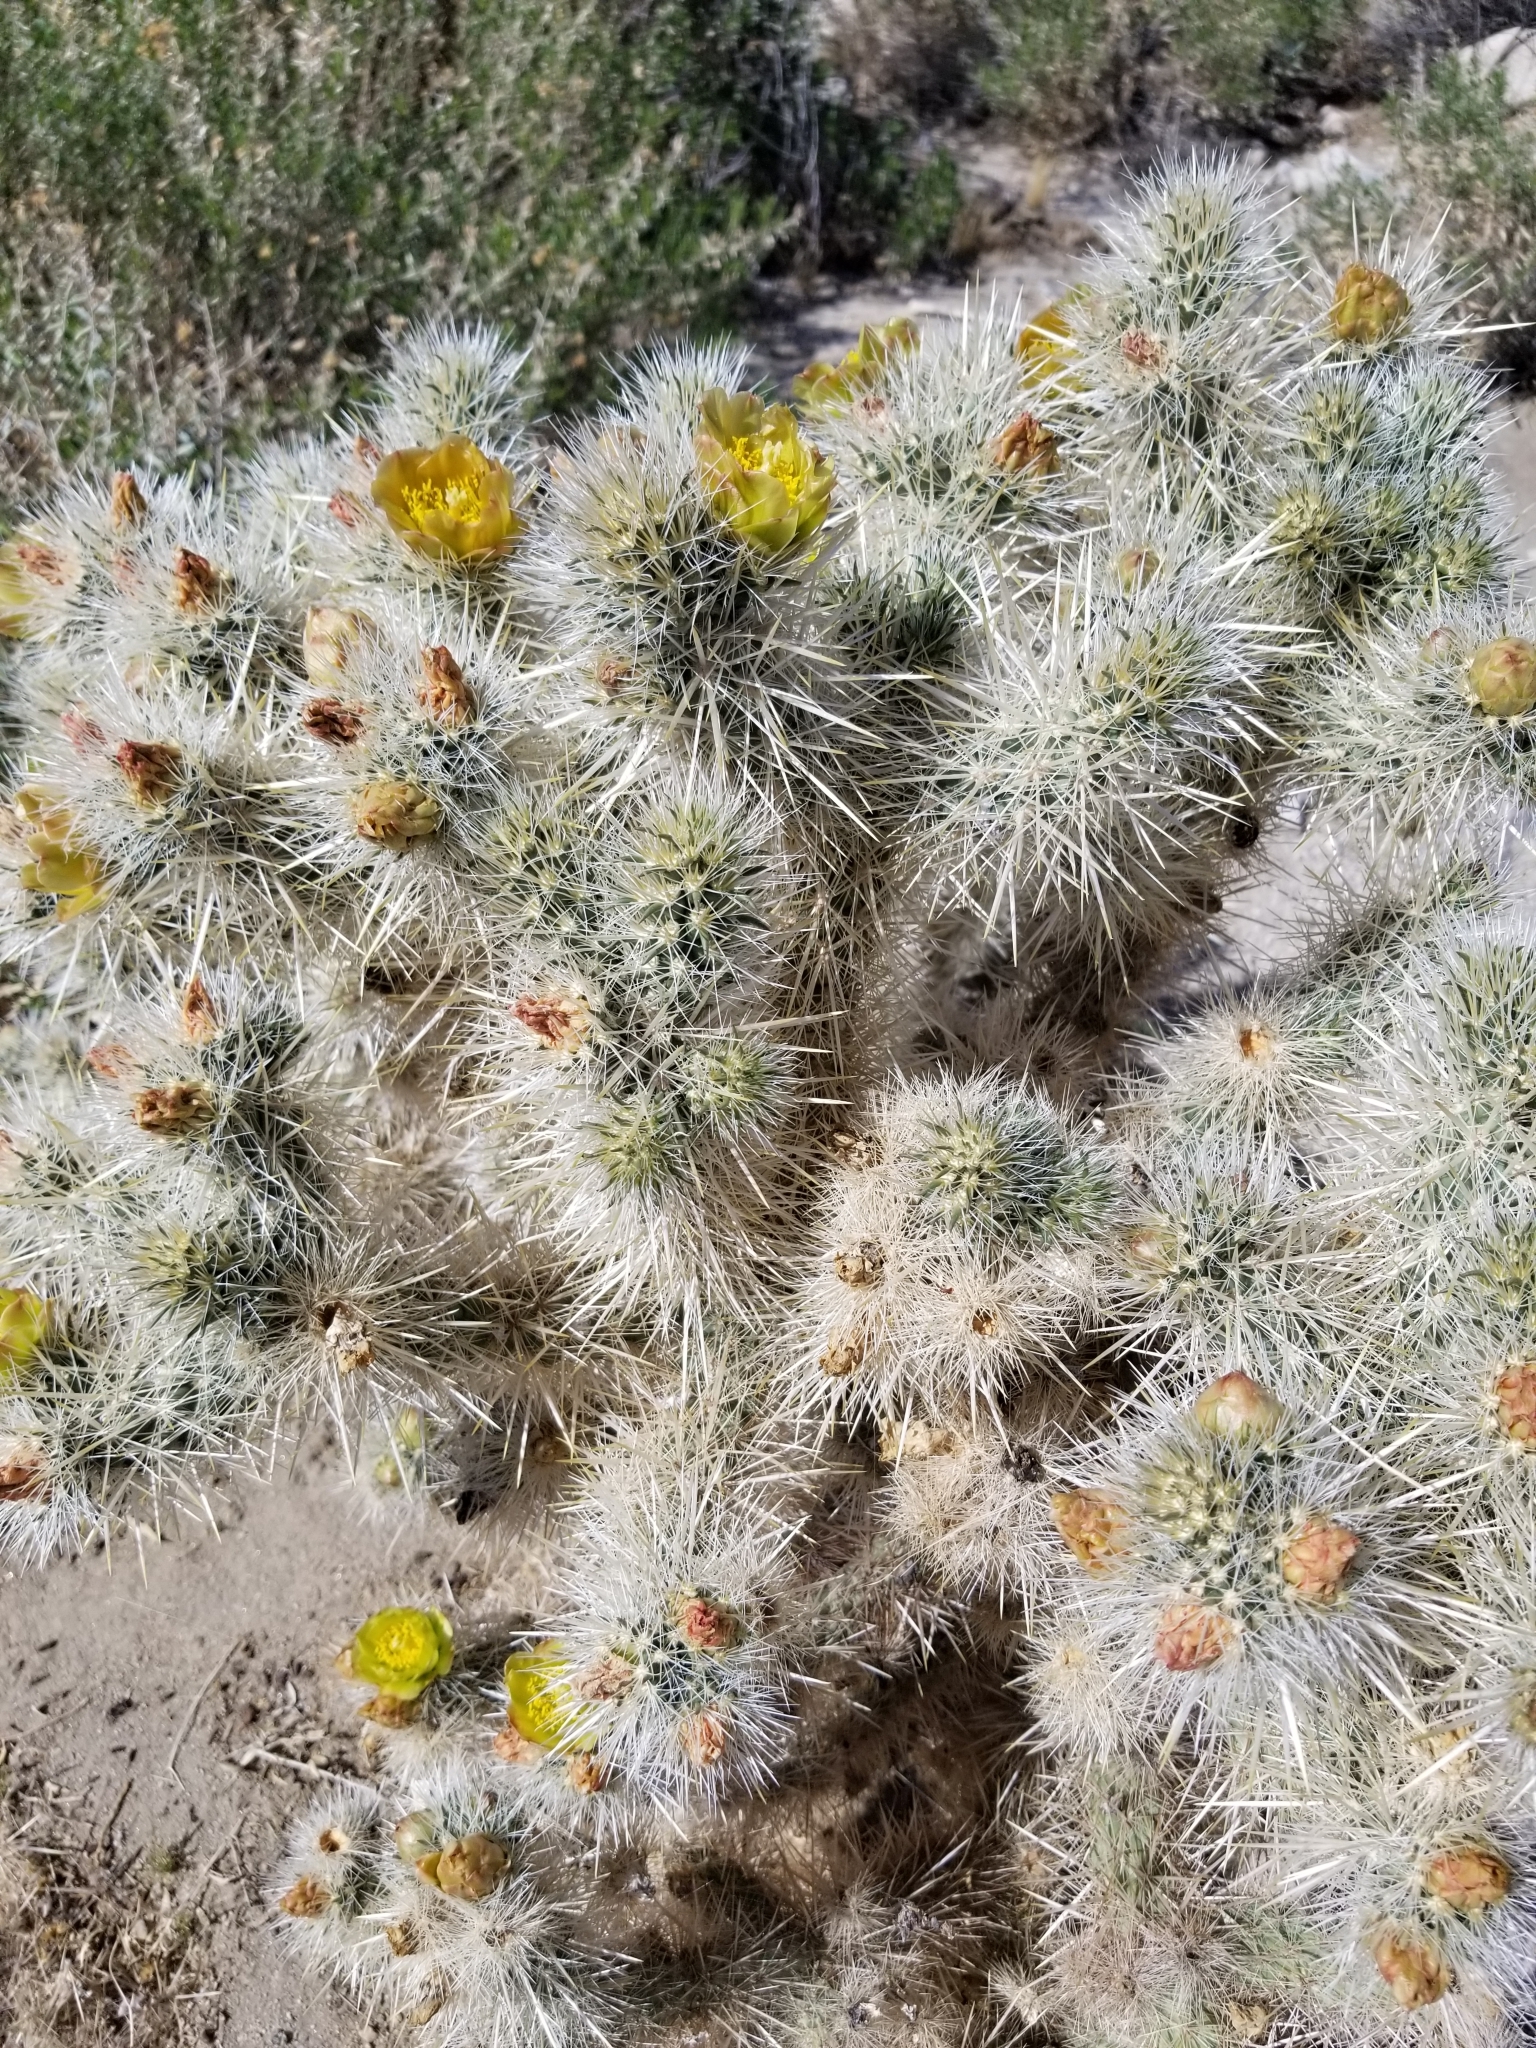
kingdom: Plantae
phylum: Tracheophyta
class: Magnoliopsida
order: Caryophyllales
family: Cactaceae
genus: Cylindropuntia
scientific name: Cylindropuntia echinocarpa
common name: Ground cholla
